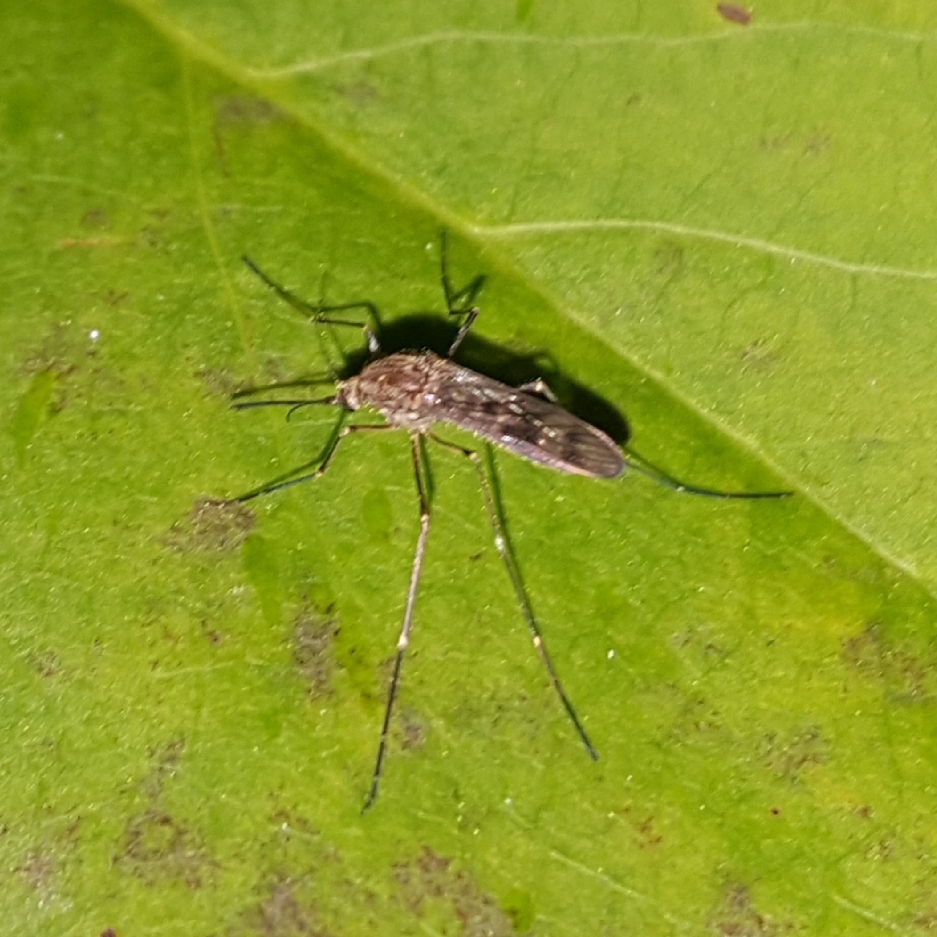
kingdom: Animalia
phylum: Arthropoda
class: Insecta
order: Diptera
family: Culicidae
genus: Culiseta
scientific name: Culiseta incidens
